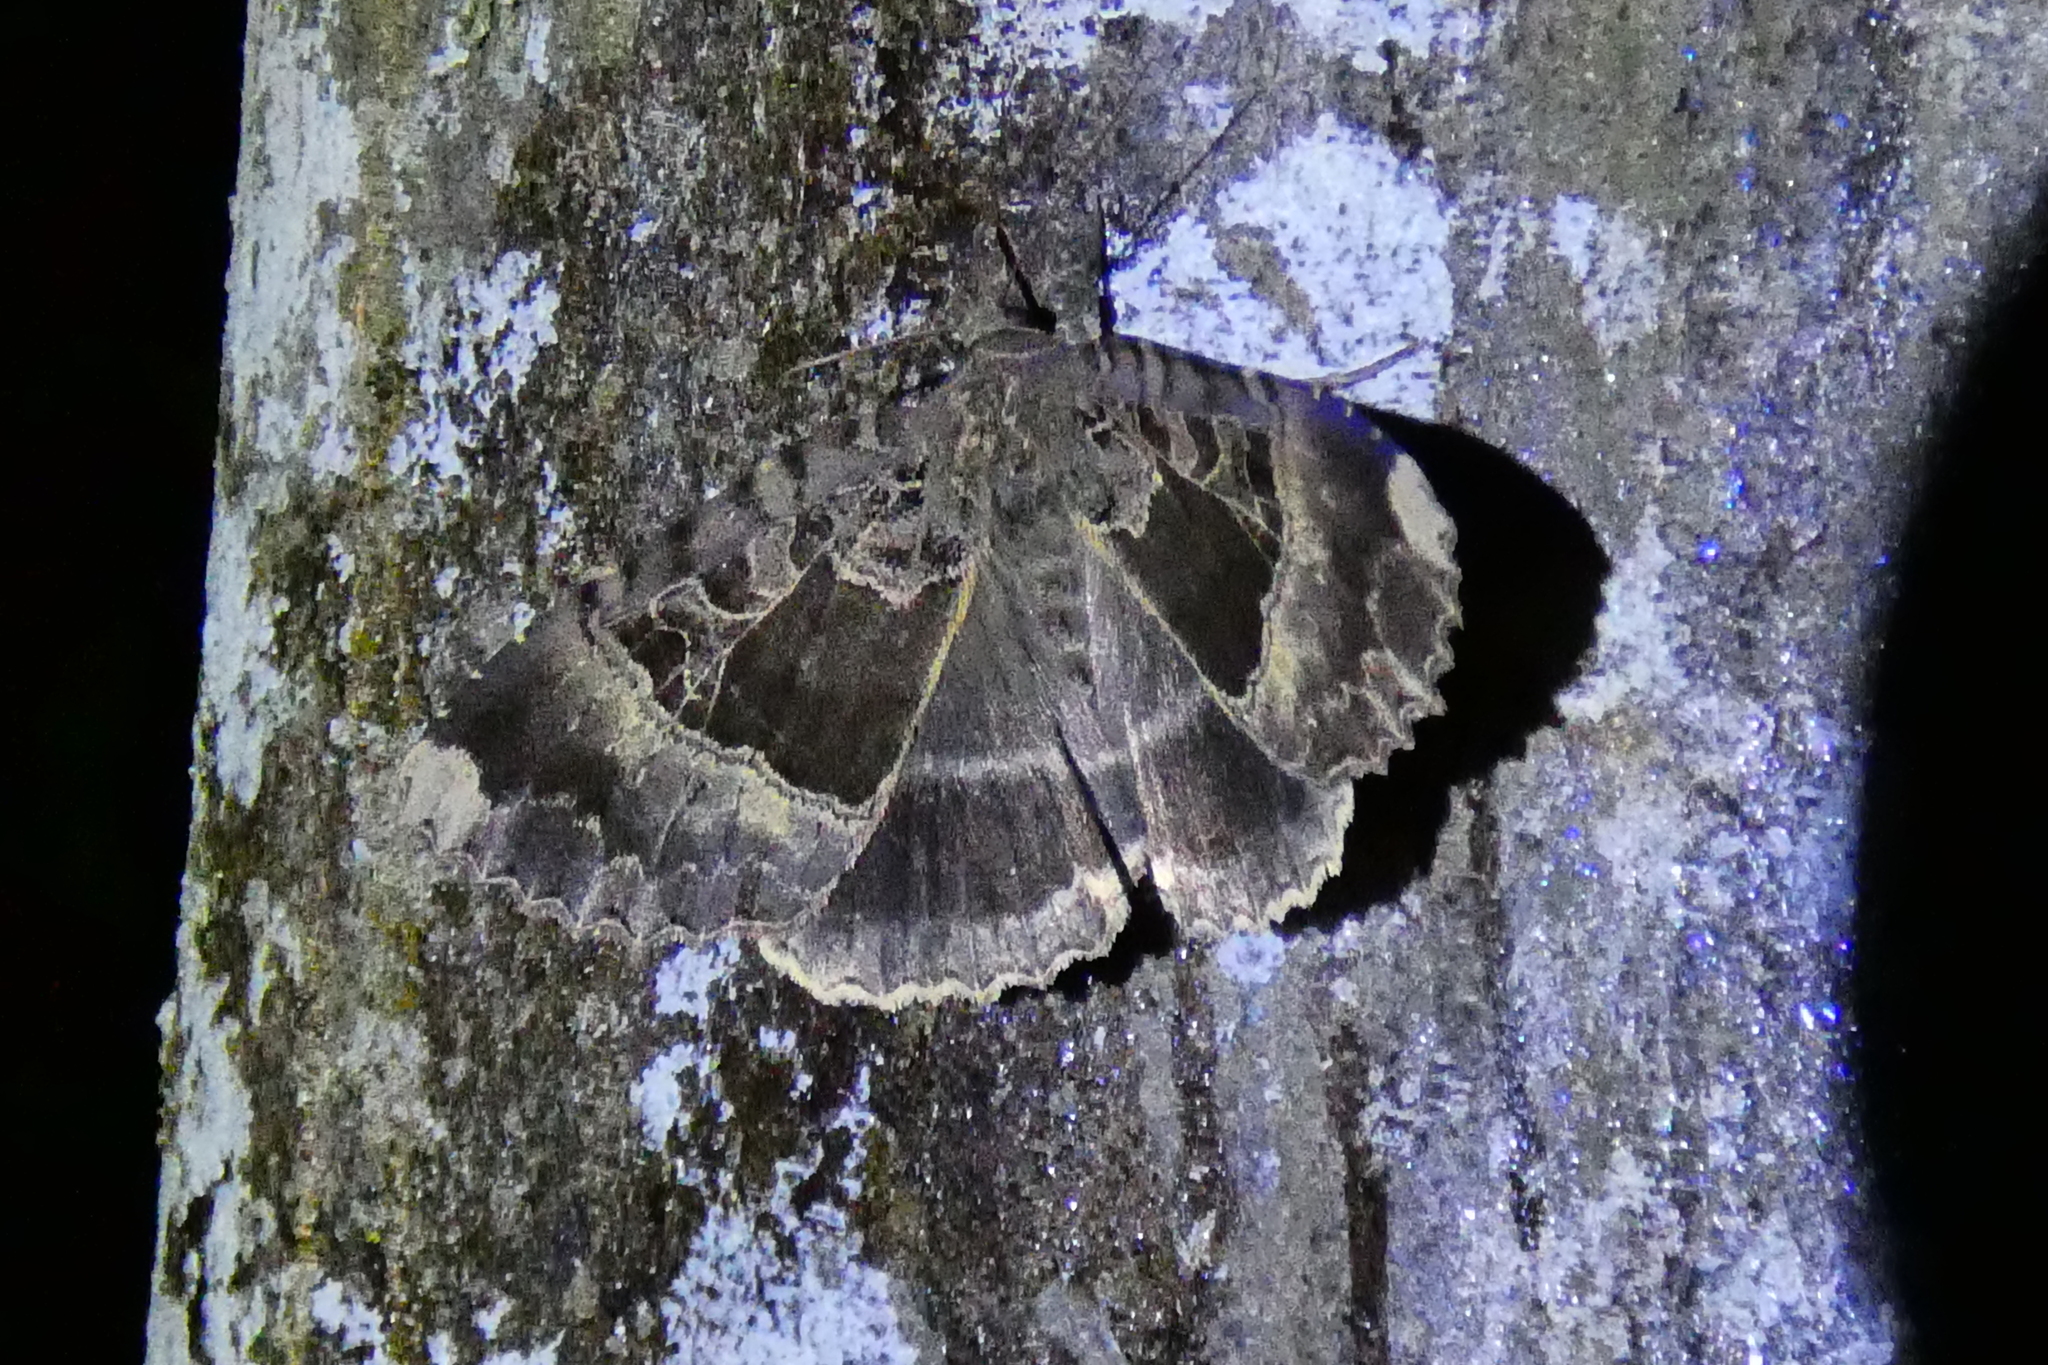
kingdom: Animalia
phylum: Arthropoda
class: Insecta
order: Lepidoptera
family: Noctuidae
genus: Mormo
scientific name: Mormo maura
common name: Old lady
